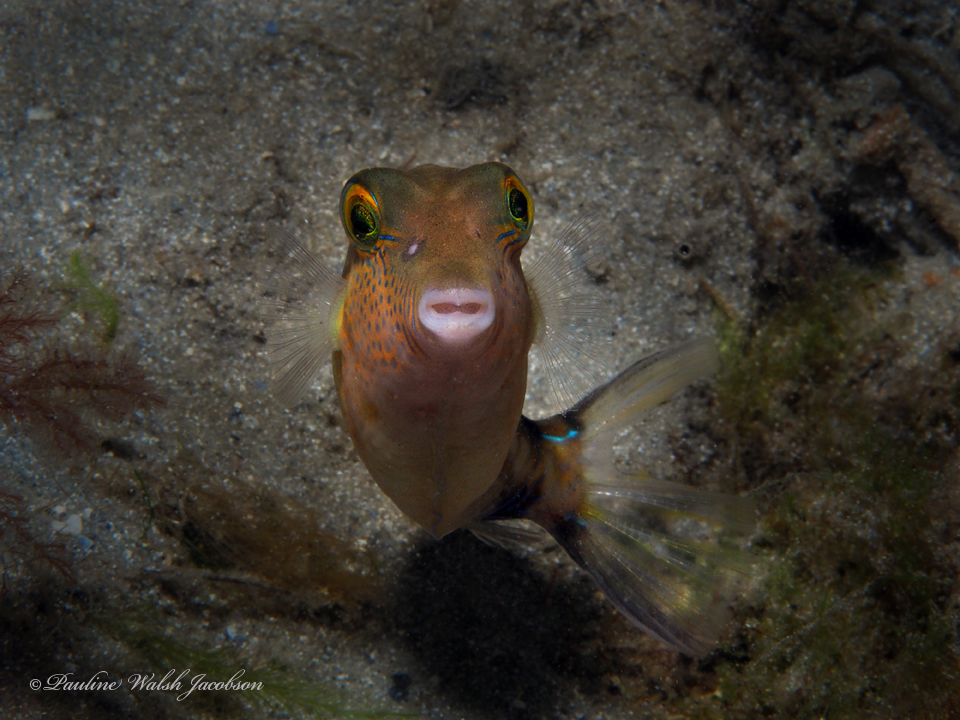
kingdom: Animalia
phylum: Chordata
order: Tetraodontiformes
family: Tetraodontidae
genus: Canthigaster
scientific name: Canthigaster rostrata
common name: Caribbean sharpnose-puffer
